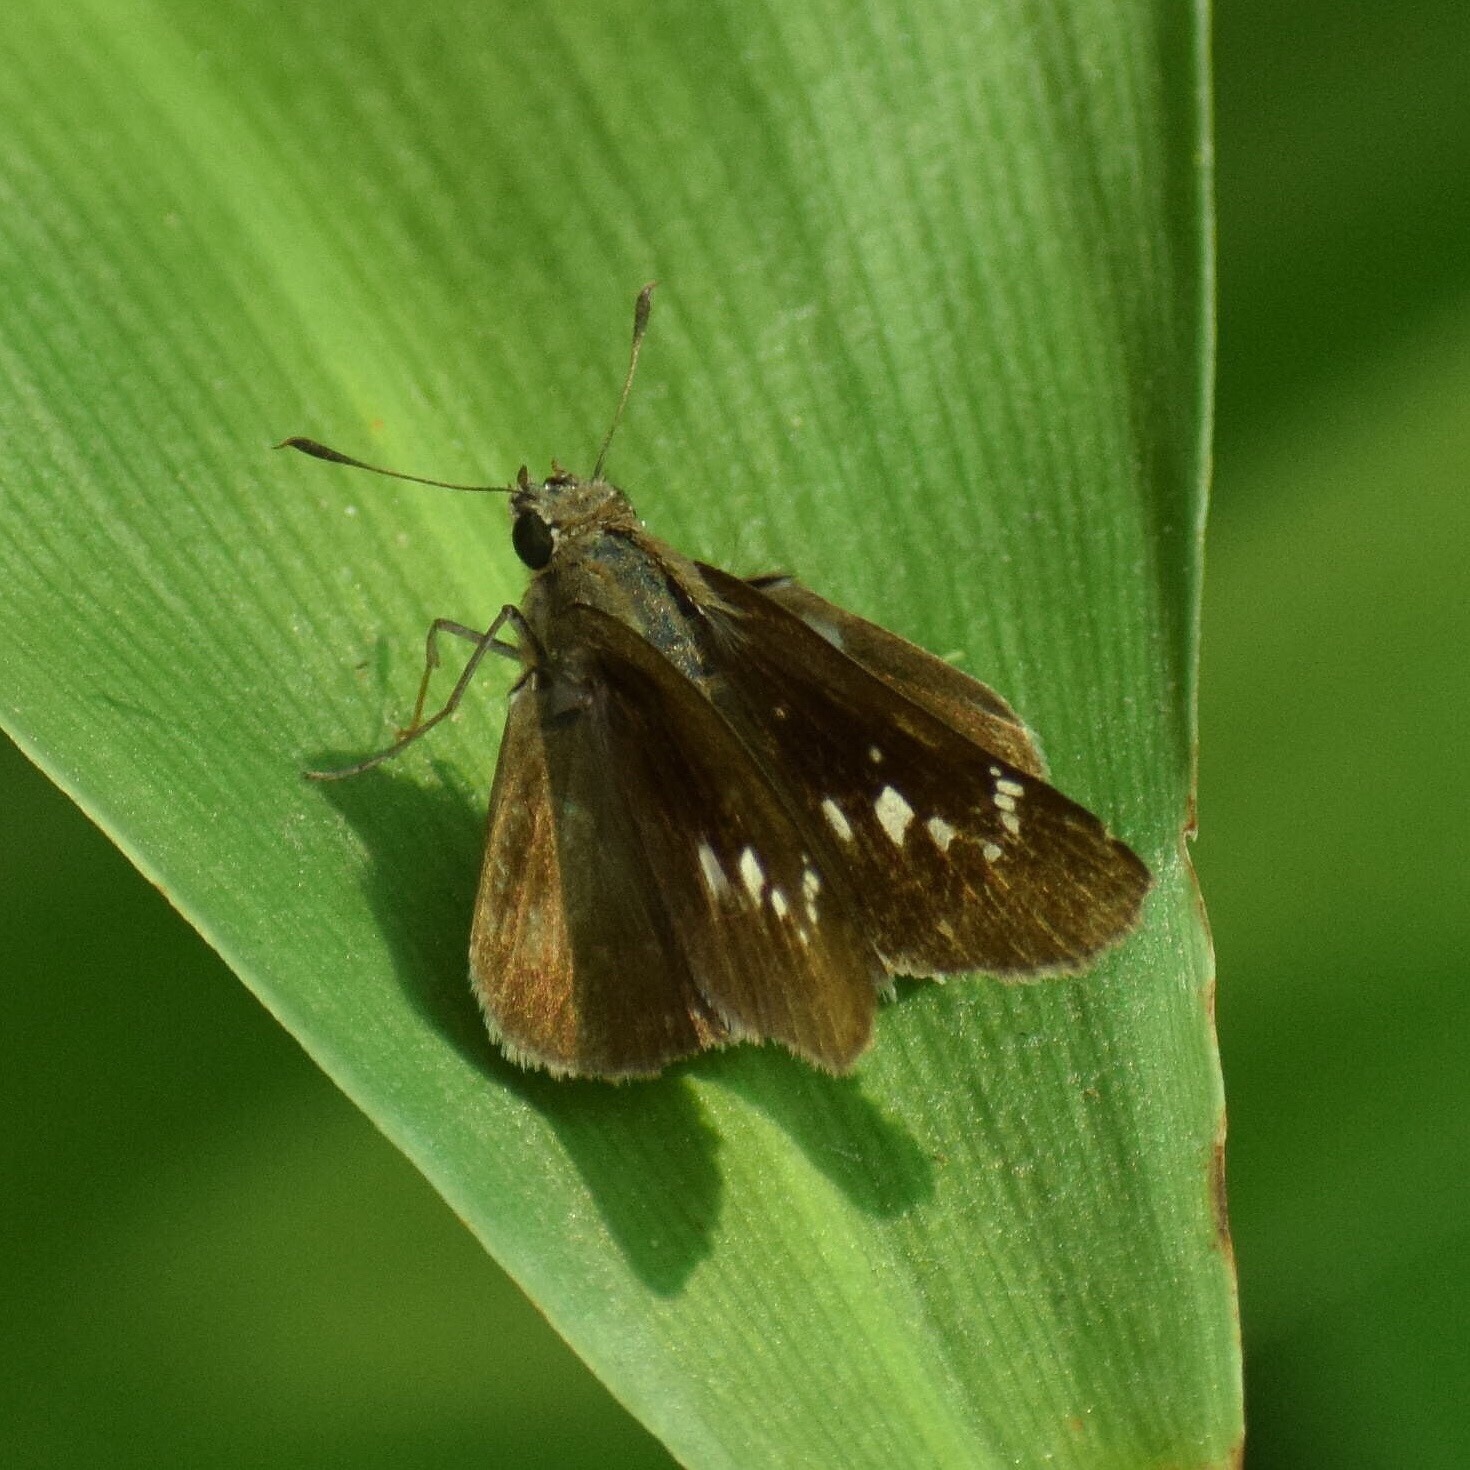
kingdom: Animalia
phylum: Arthropoda
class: Insecta
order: Lepidoptera
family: Hesperiidae
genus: Baoris
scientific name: Baoris fatuellus
